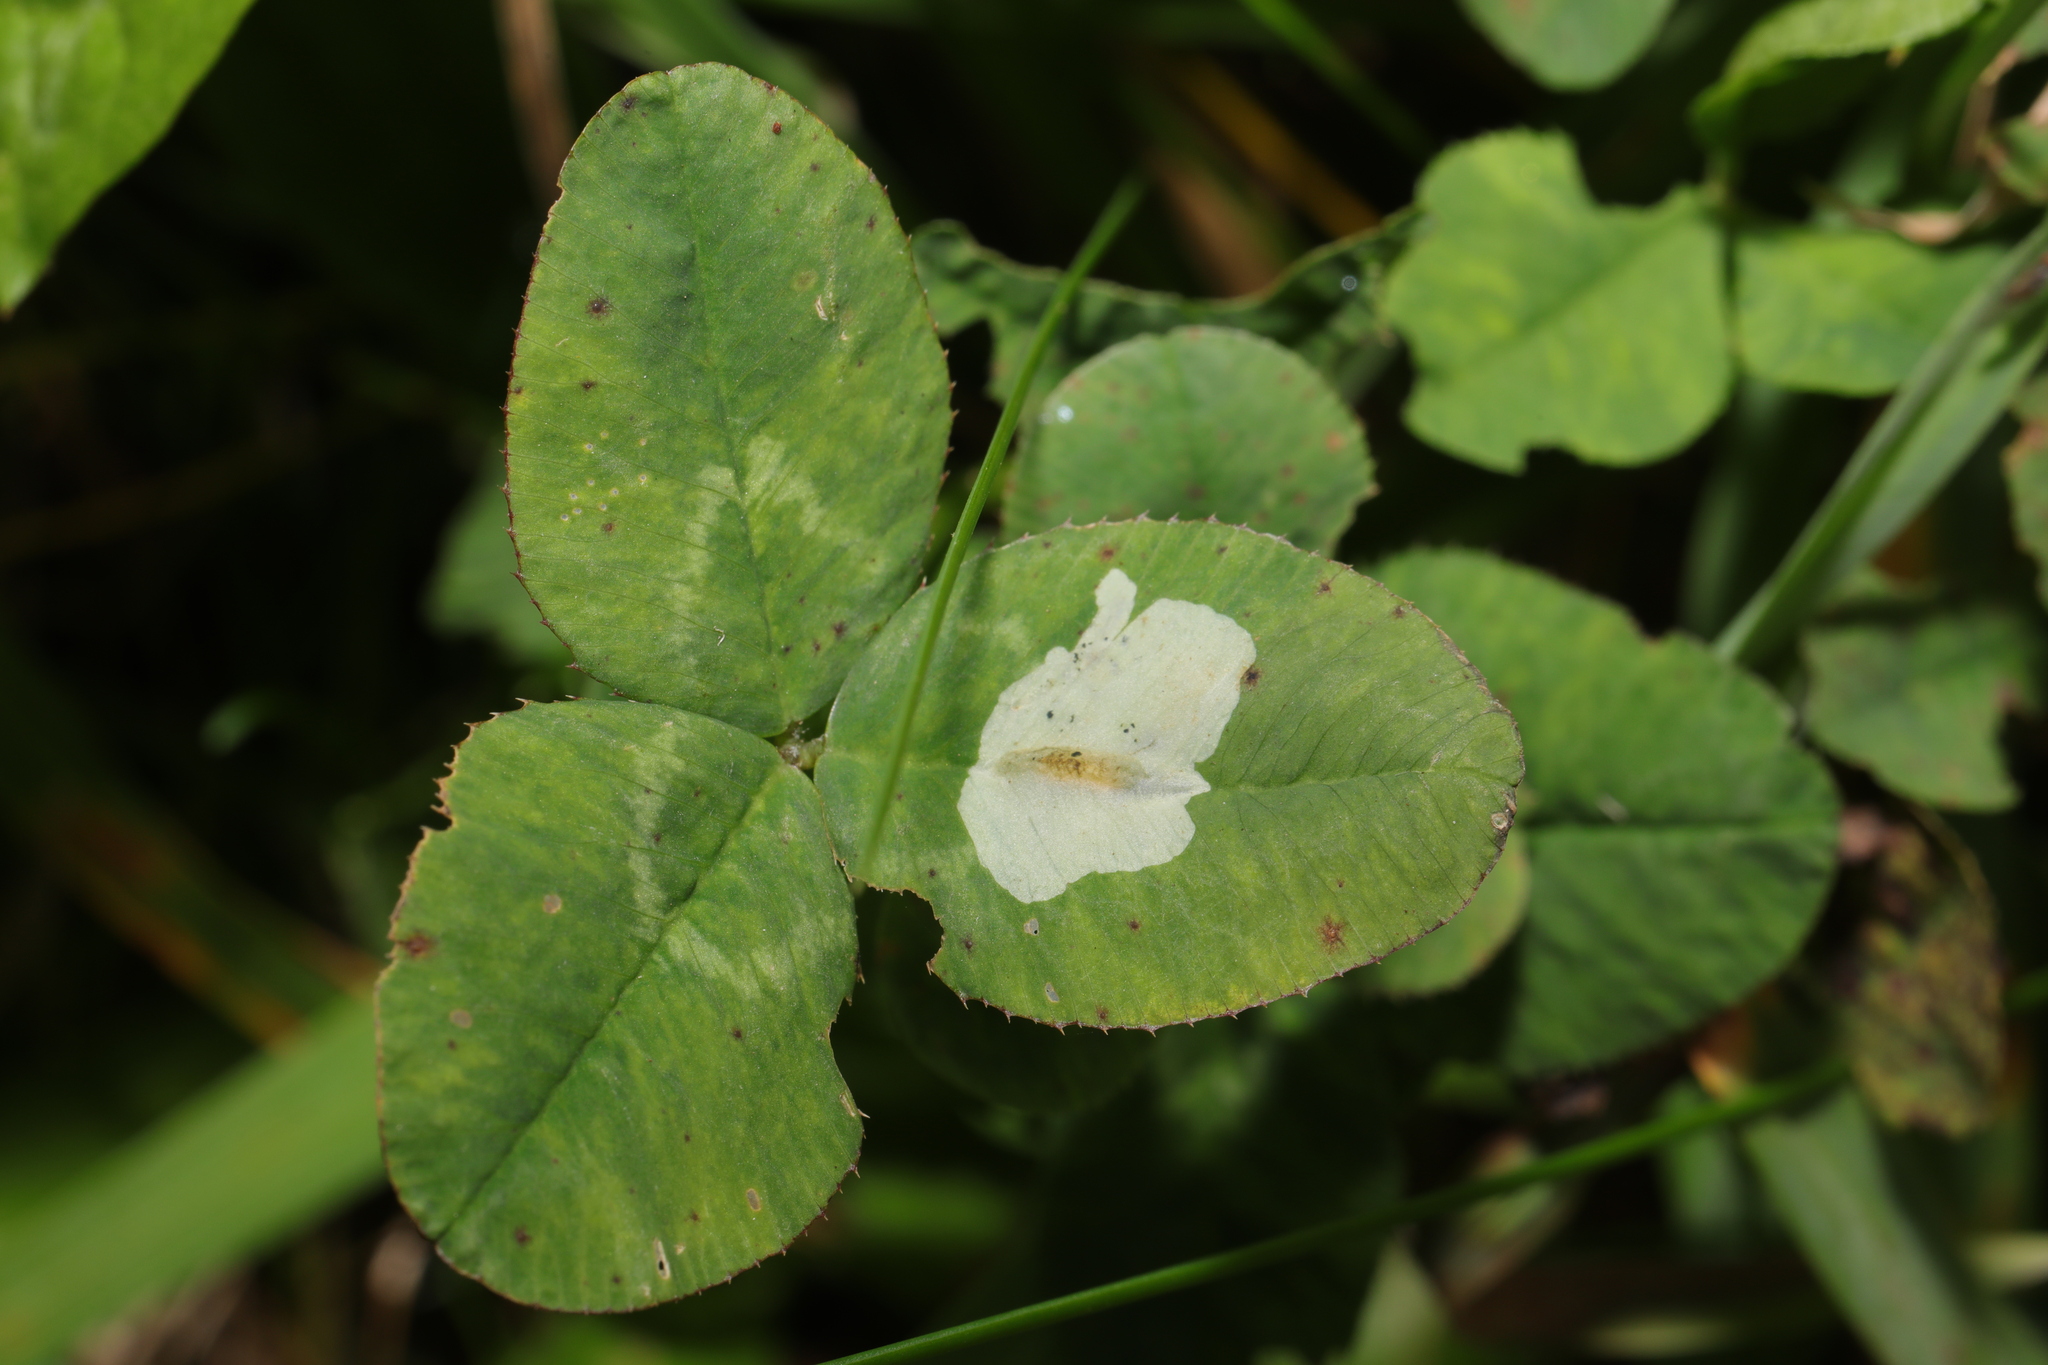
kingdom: Animalia
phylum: Arthropoda
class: Insecta
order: Diptera
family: Agromyzidae
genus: Agromyza
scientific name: Agromyza nana
